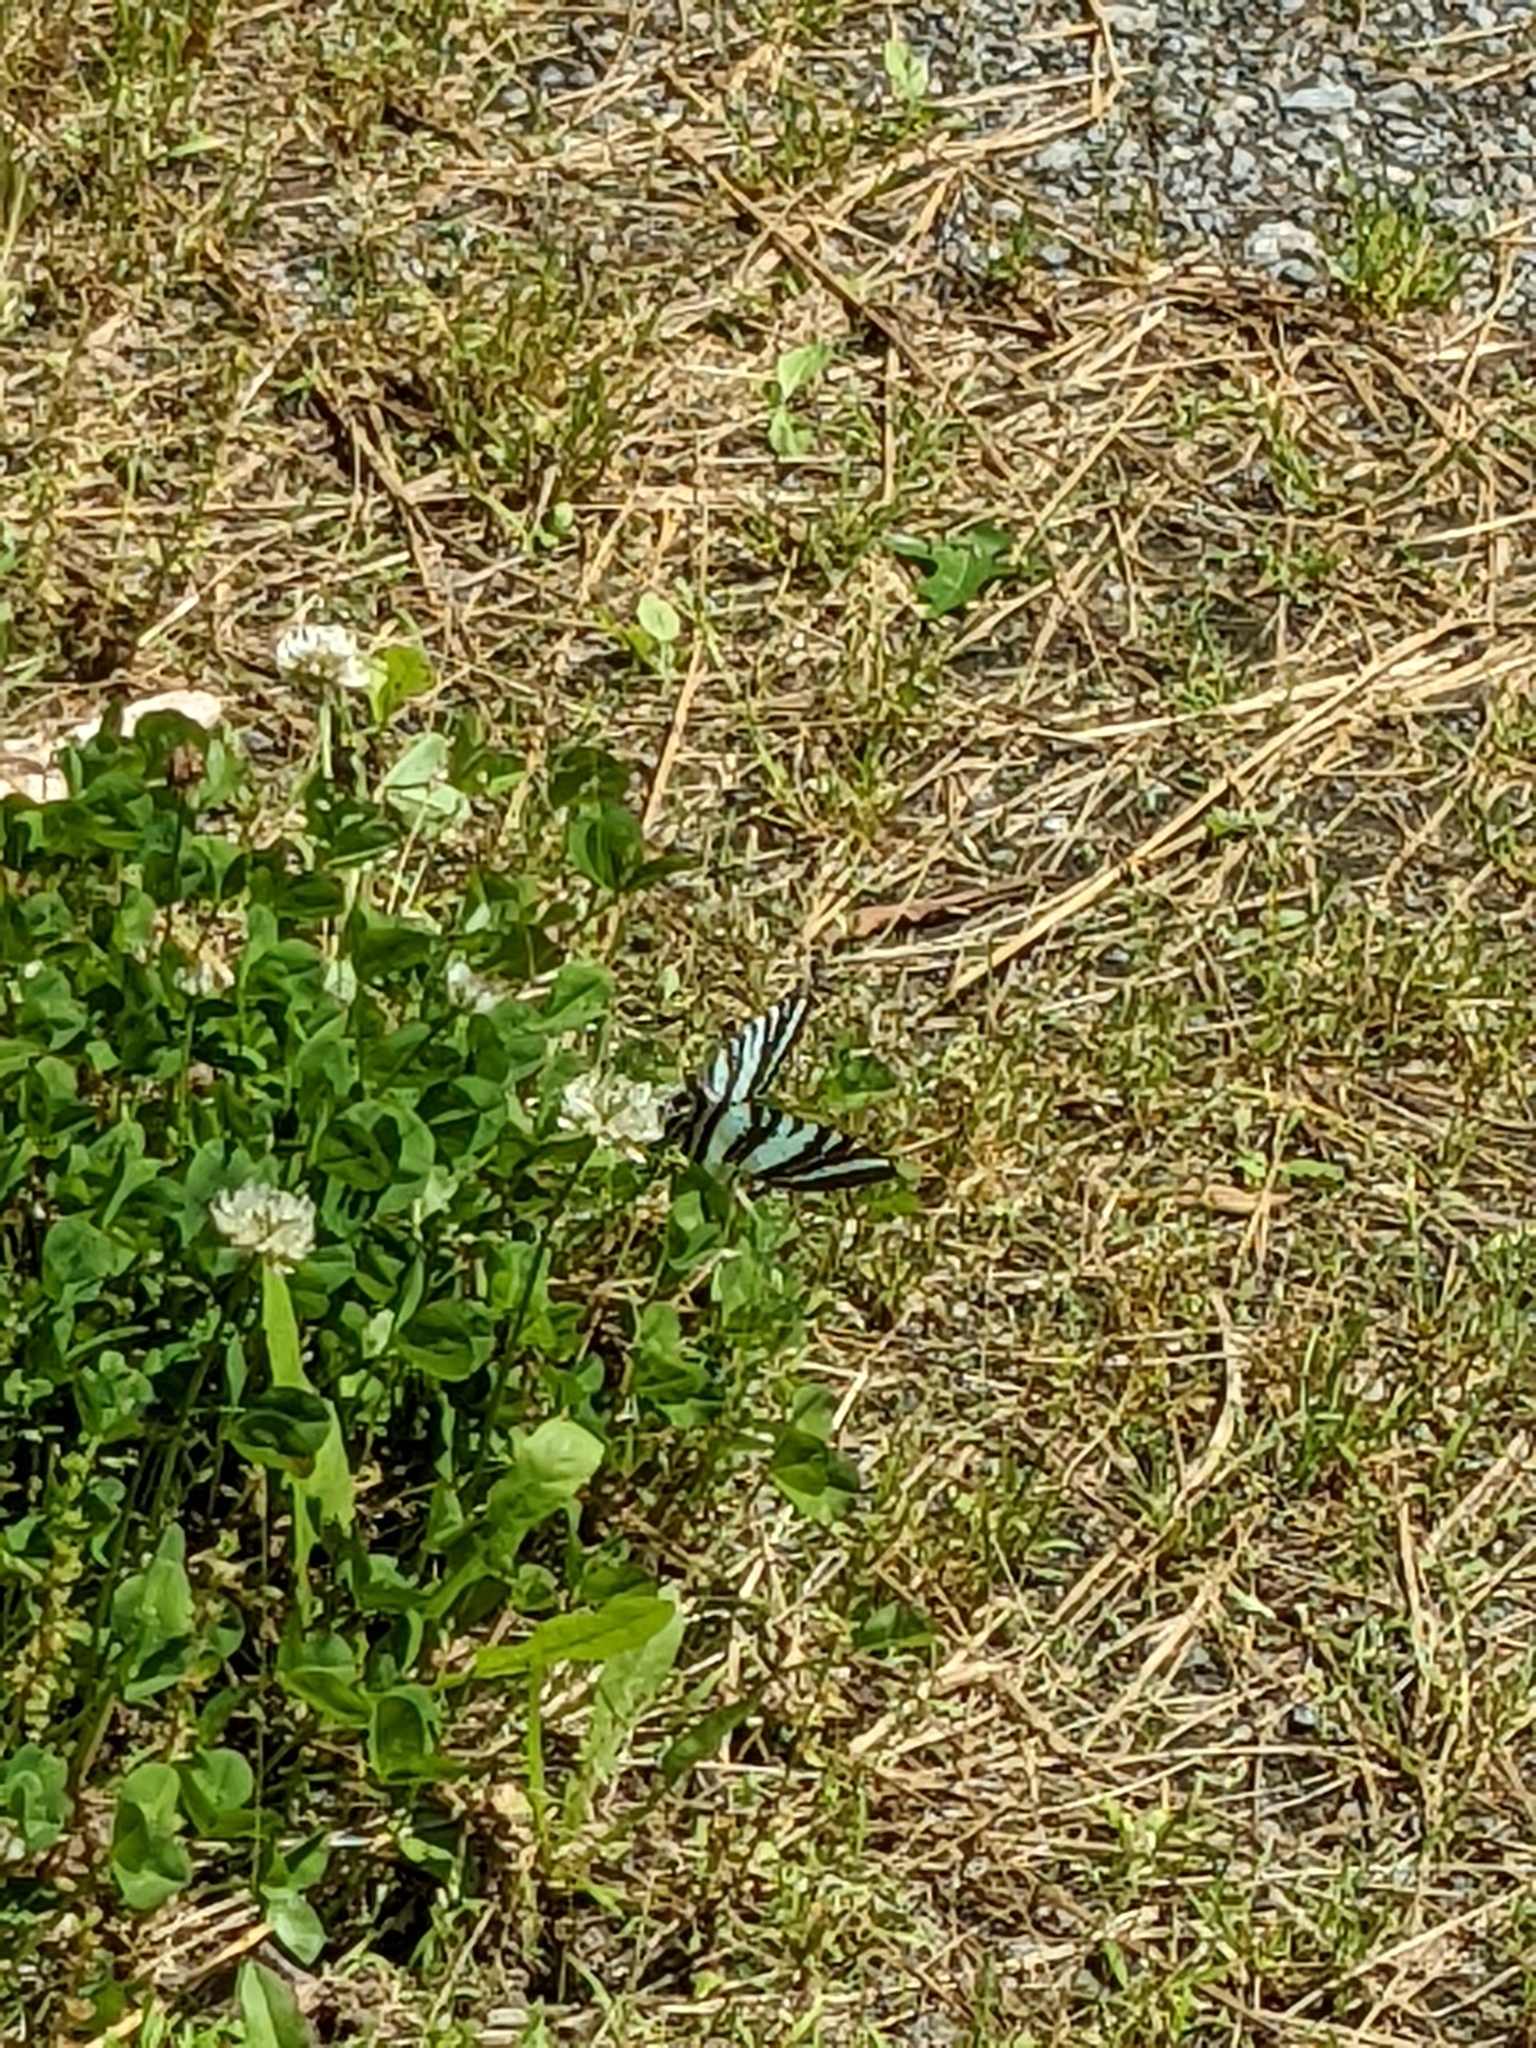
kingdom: Animalia
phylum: Arthropoda
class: Insecta
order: Lepidoptera
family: Papilionidae
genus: Protographium
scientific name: Protographium marcellus
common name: Zebra swallowtail
